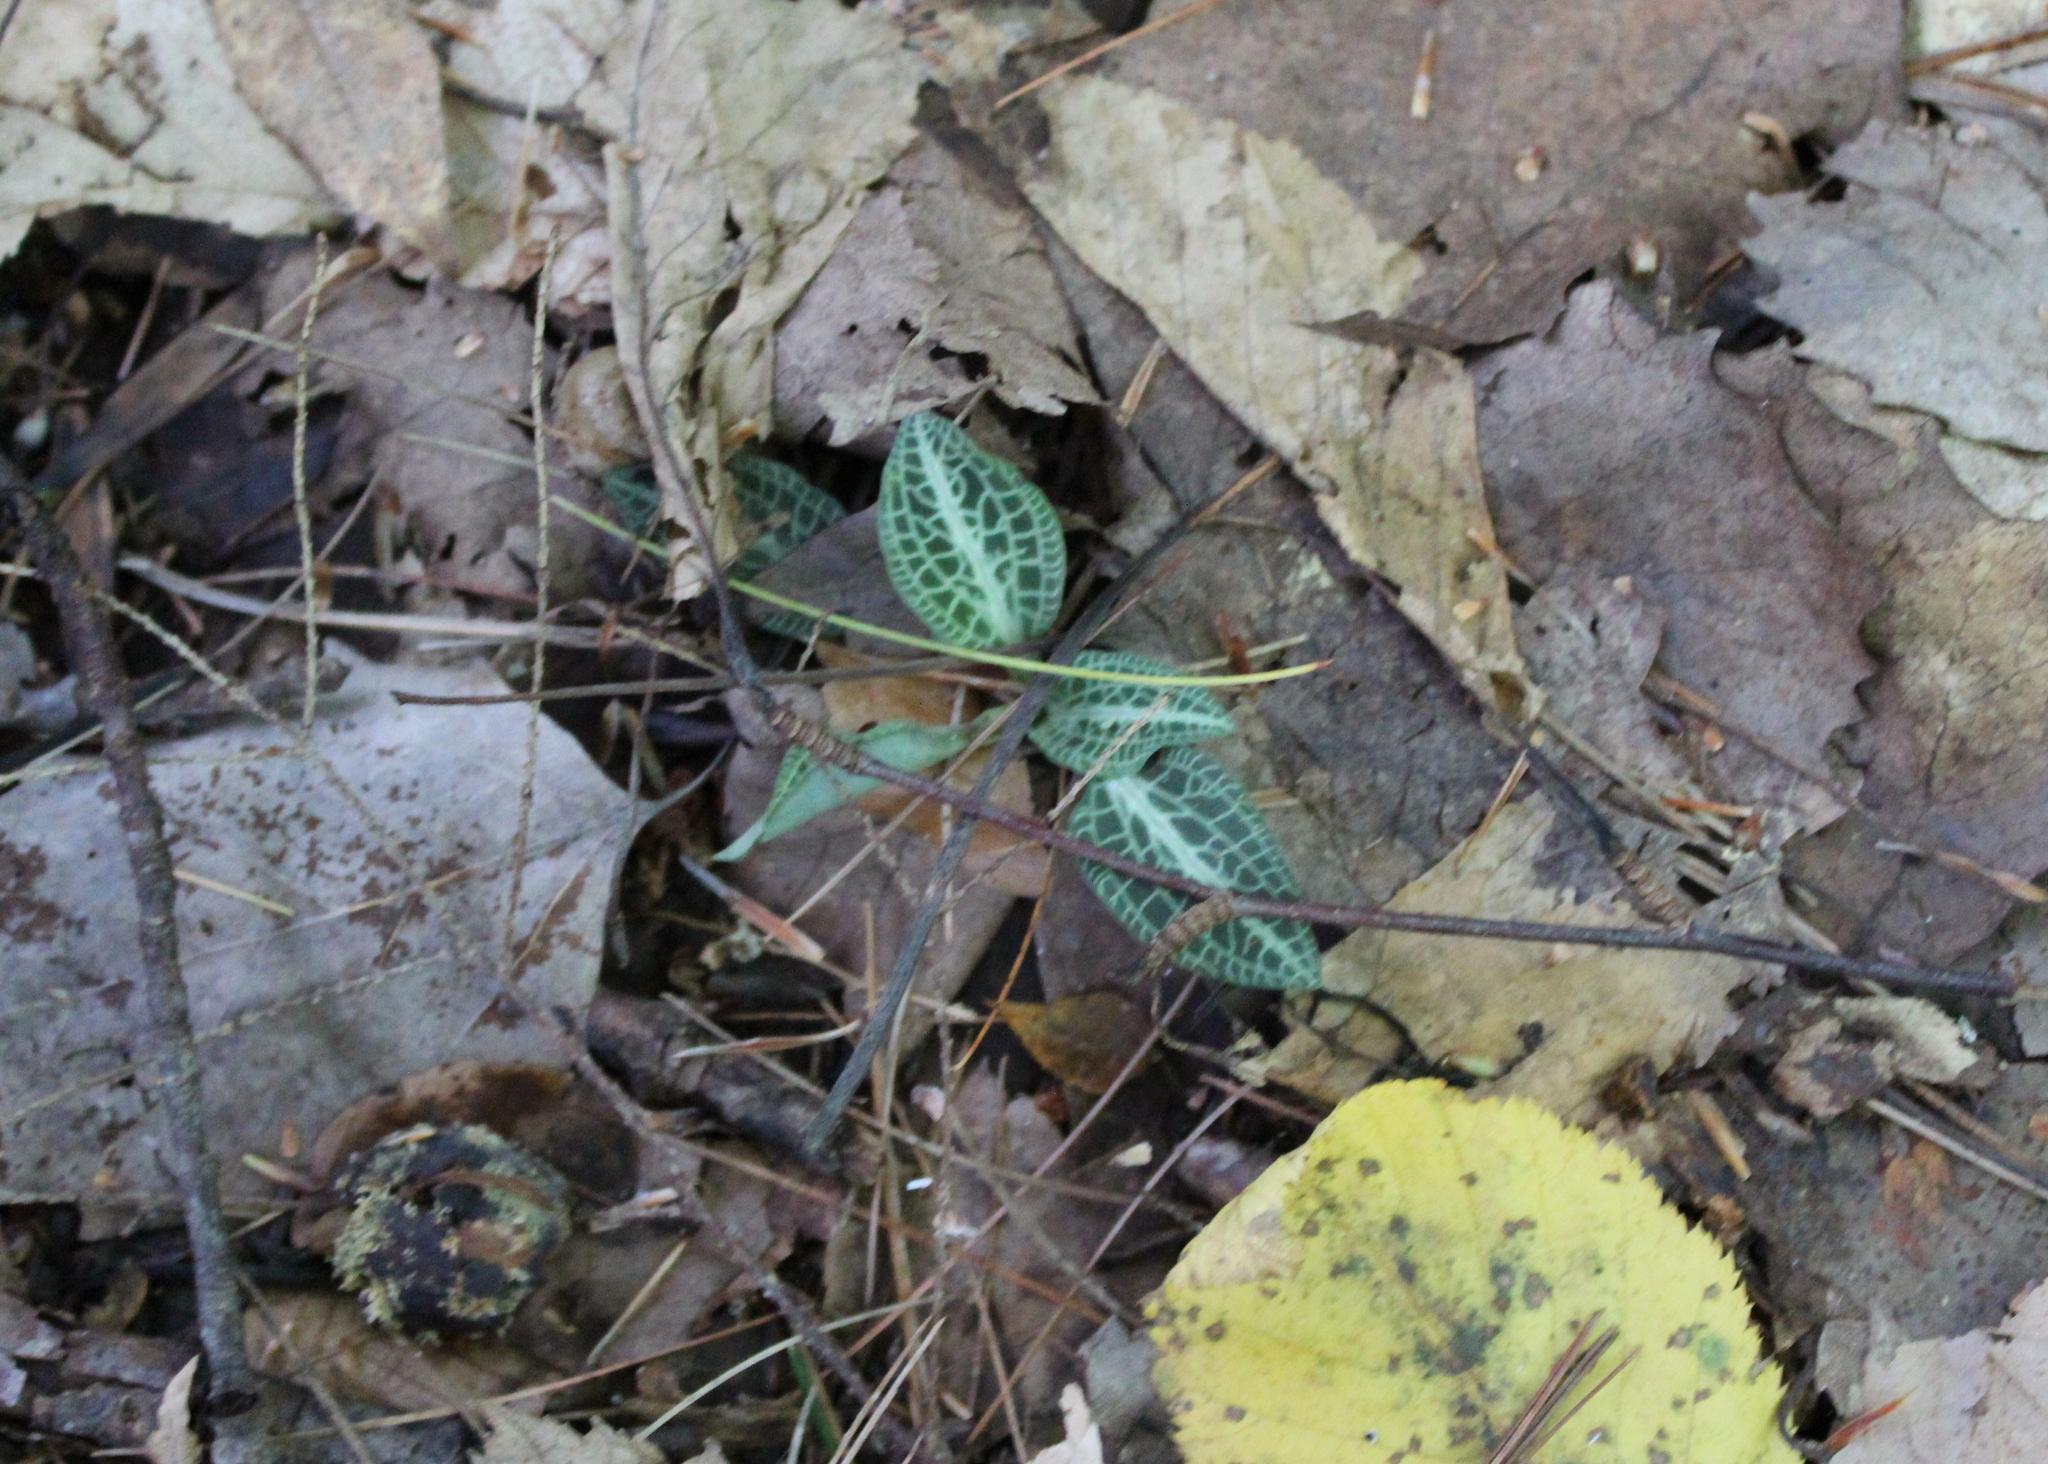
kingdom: Plantae
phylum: Tracheophyta
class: Liliopsida
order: Asparagales
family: Orchidaceae
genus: Goodyera
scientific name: Goodyera pubescens
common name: Downy rattlesnake-plantain
